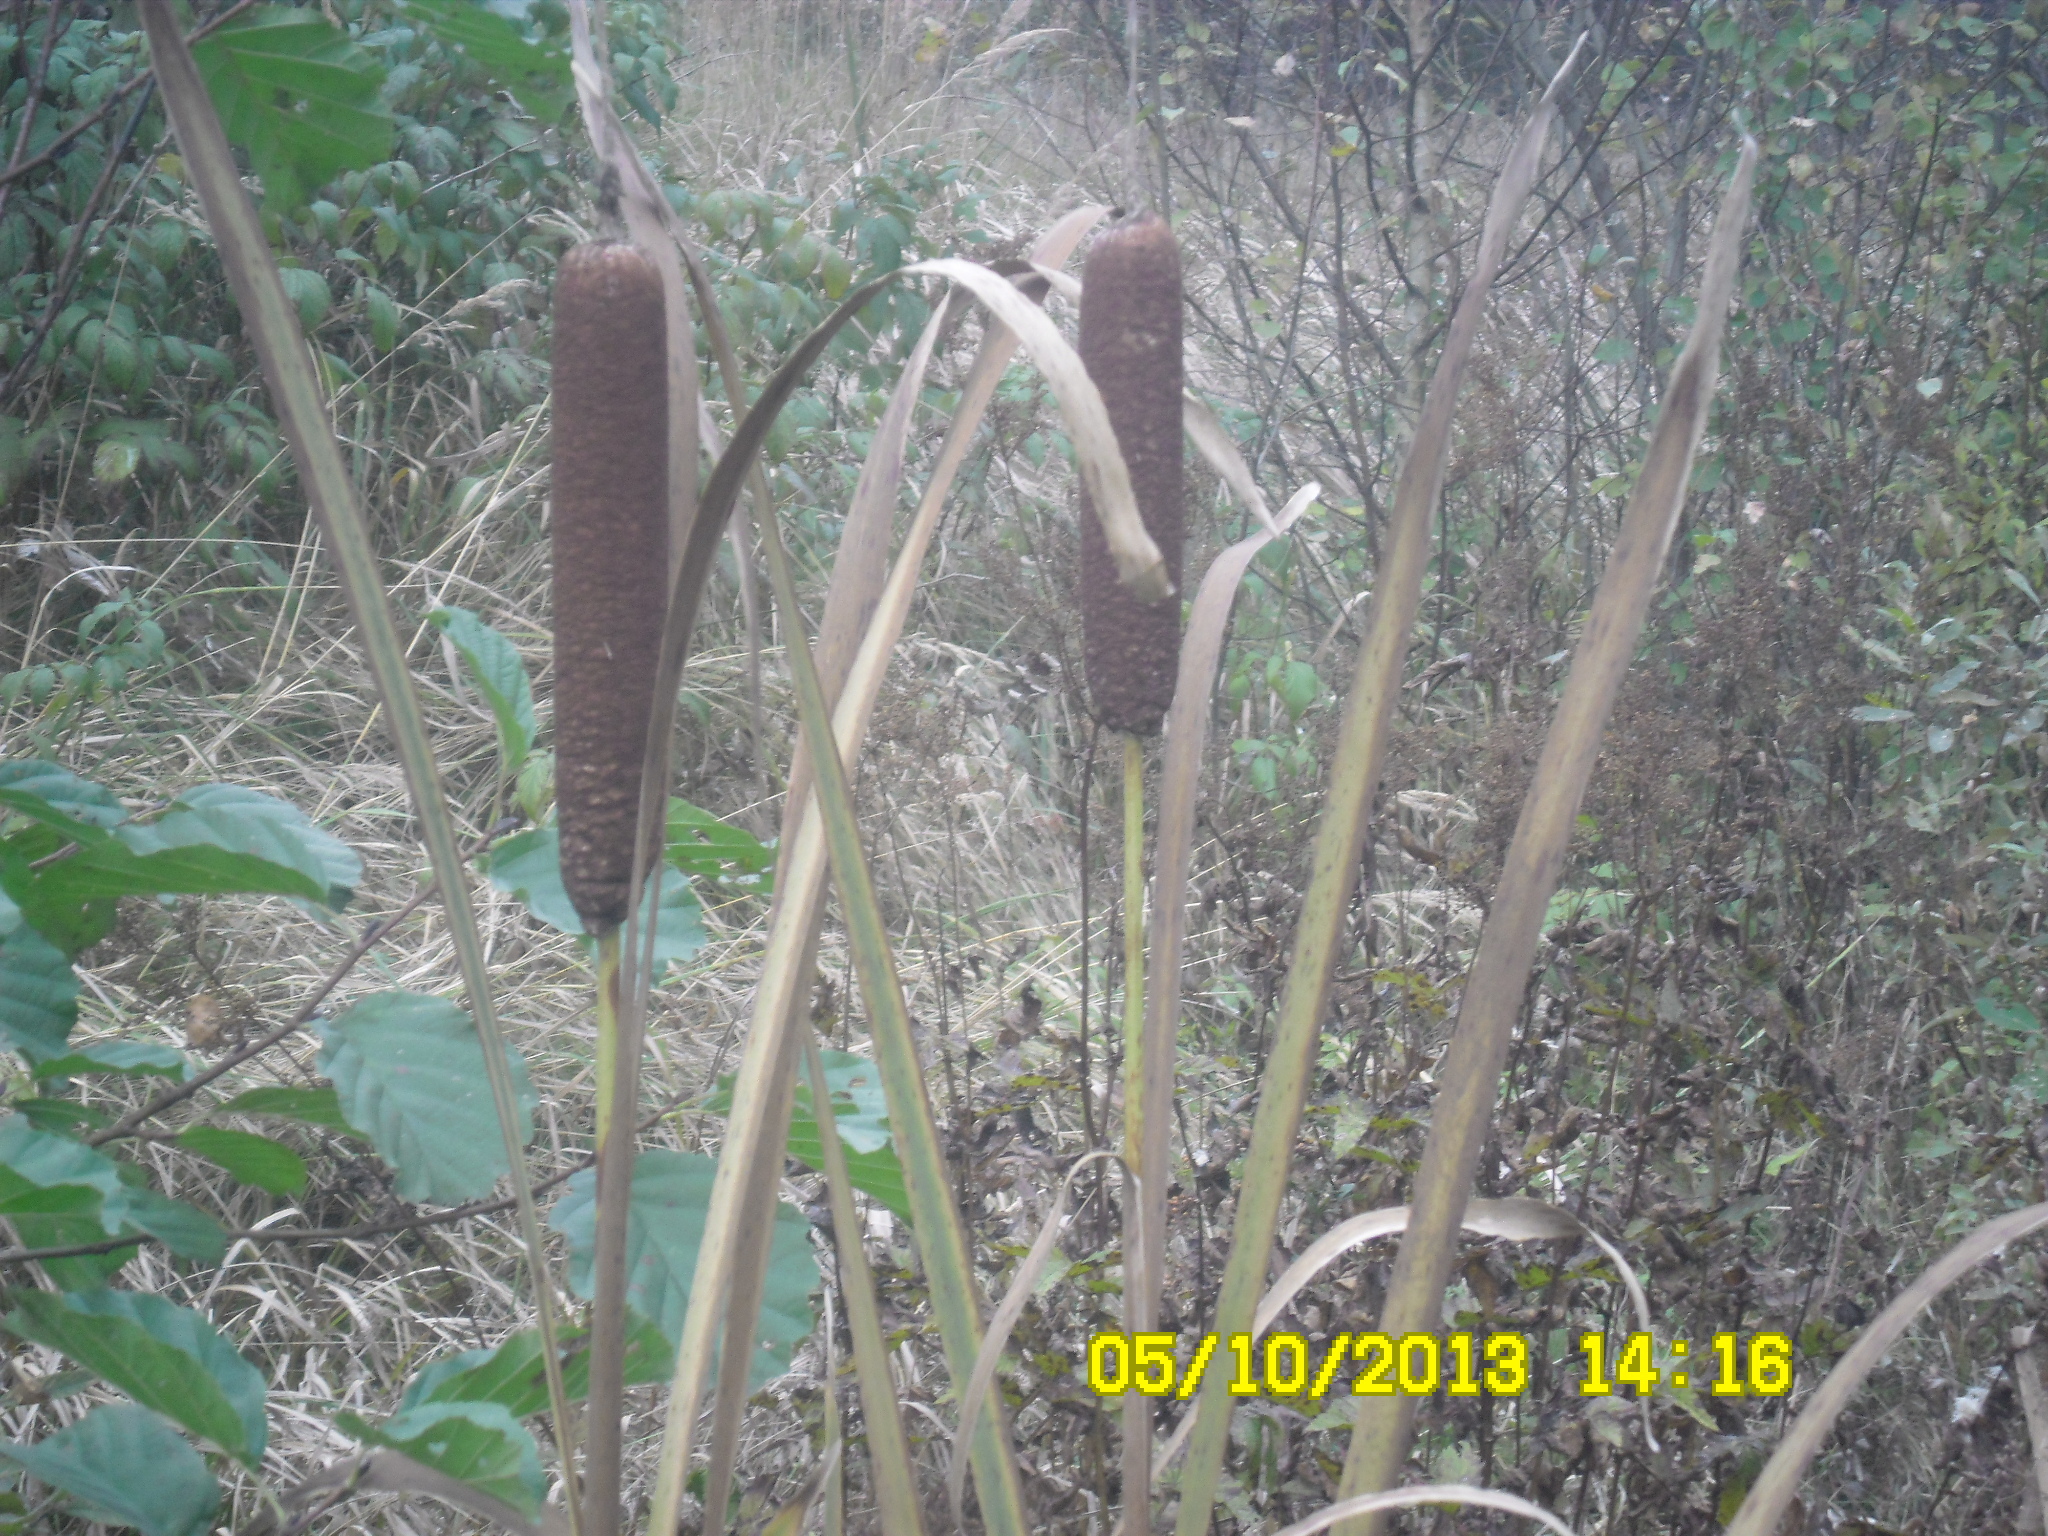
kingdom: Plantae
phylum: Tracheophyta
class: Liliopsida
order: Poales
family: Typhaceae
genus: Typha
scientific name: Typha latifolia
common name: Broadleaf cattail
